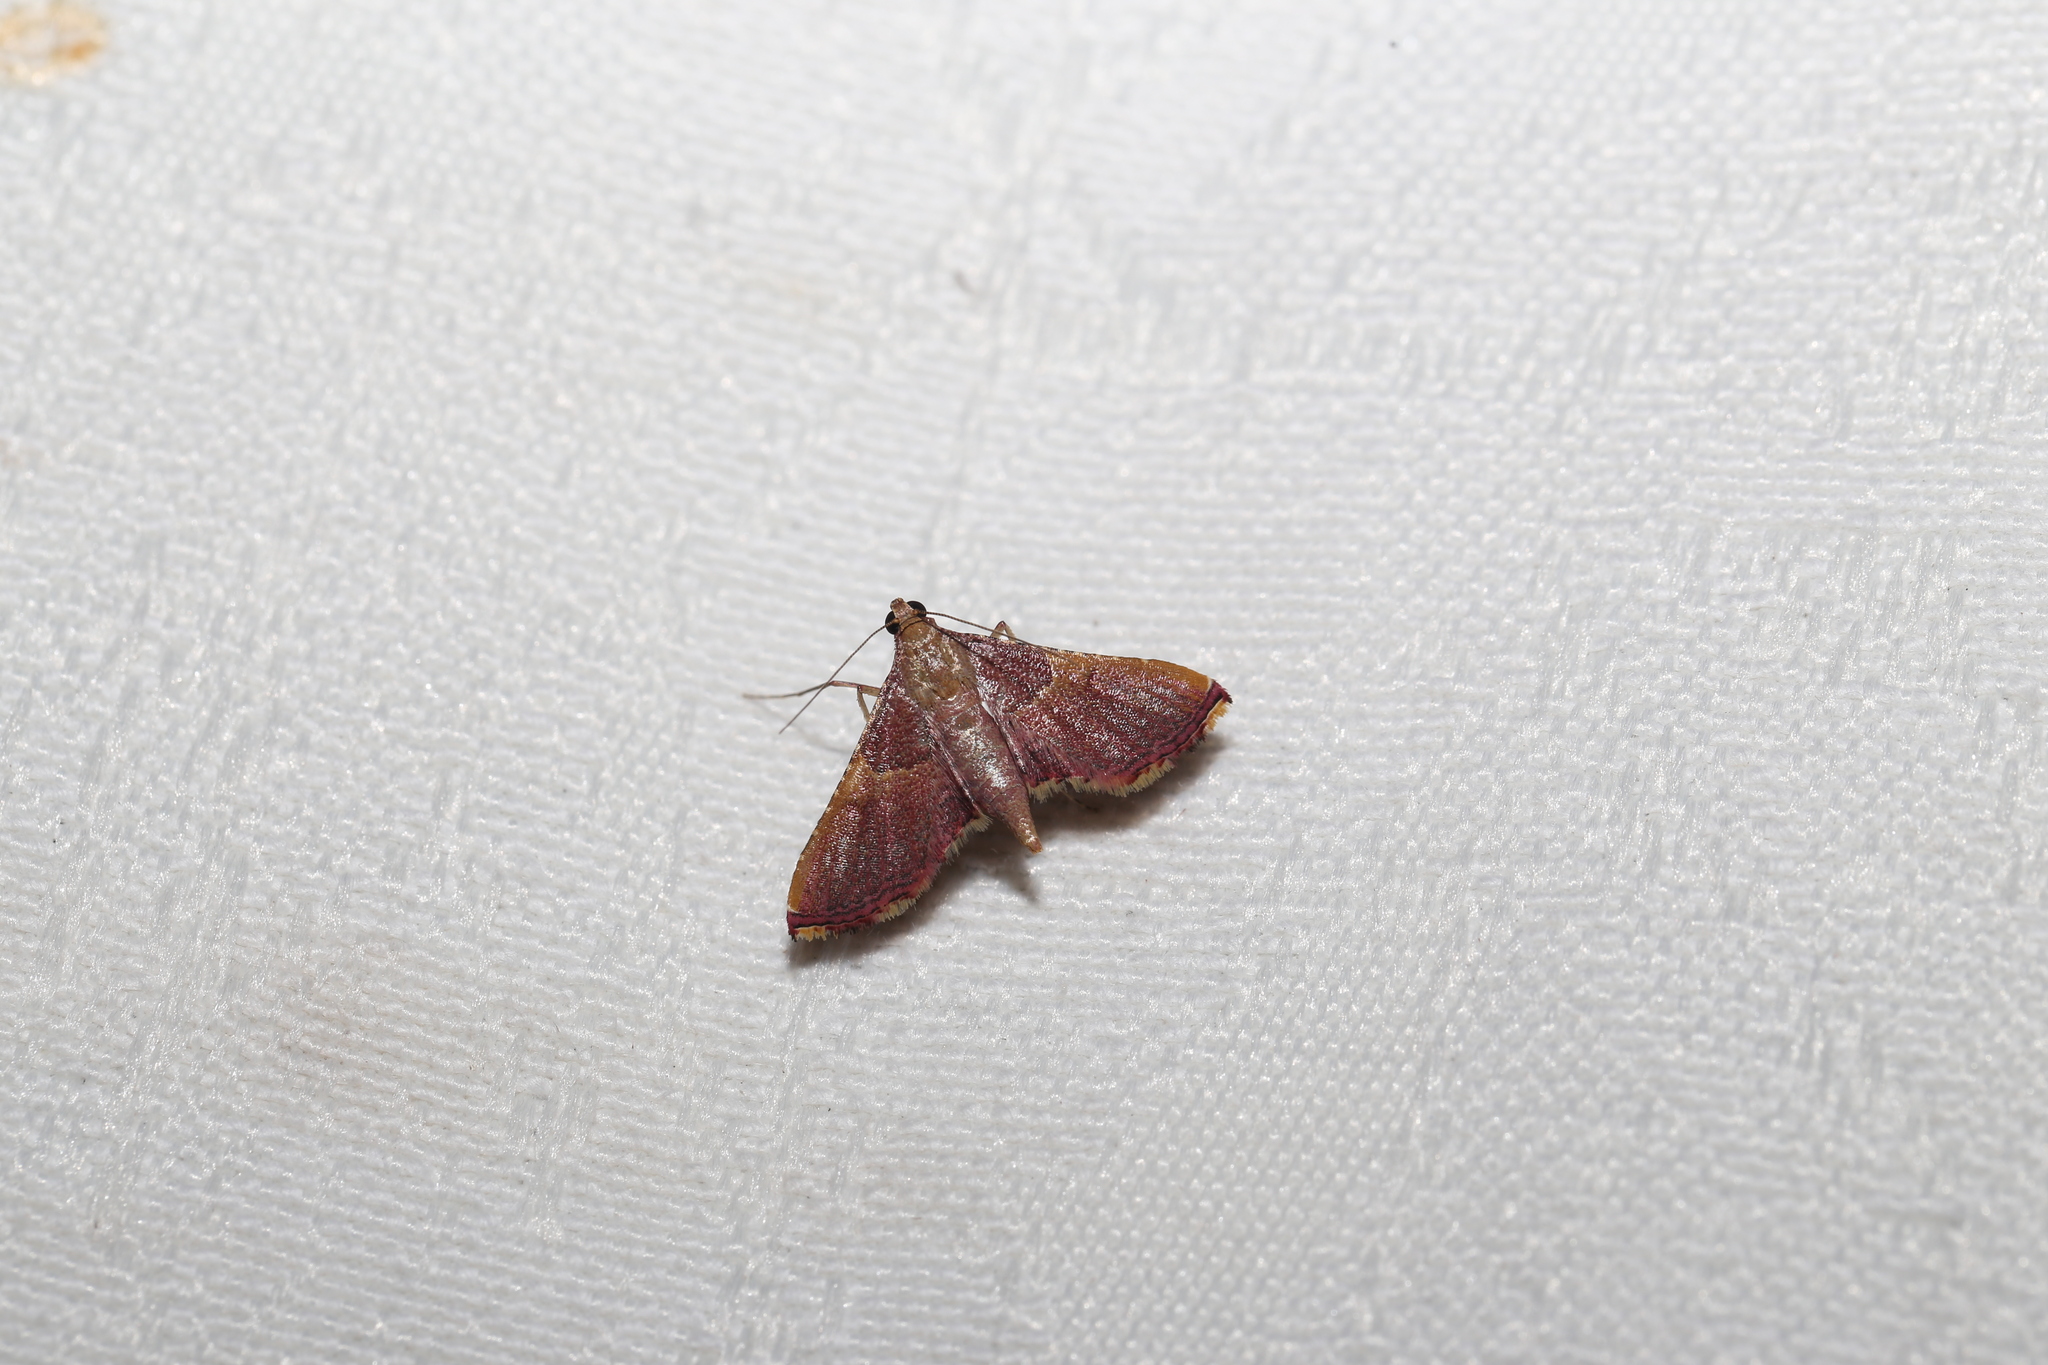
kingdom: Animalia
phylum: Arthropoda
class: Insecta
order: Lepidoptera
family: Pyralidae
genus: Endotricha
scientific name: Endotricha mesenterialis
